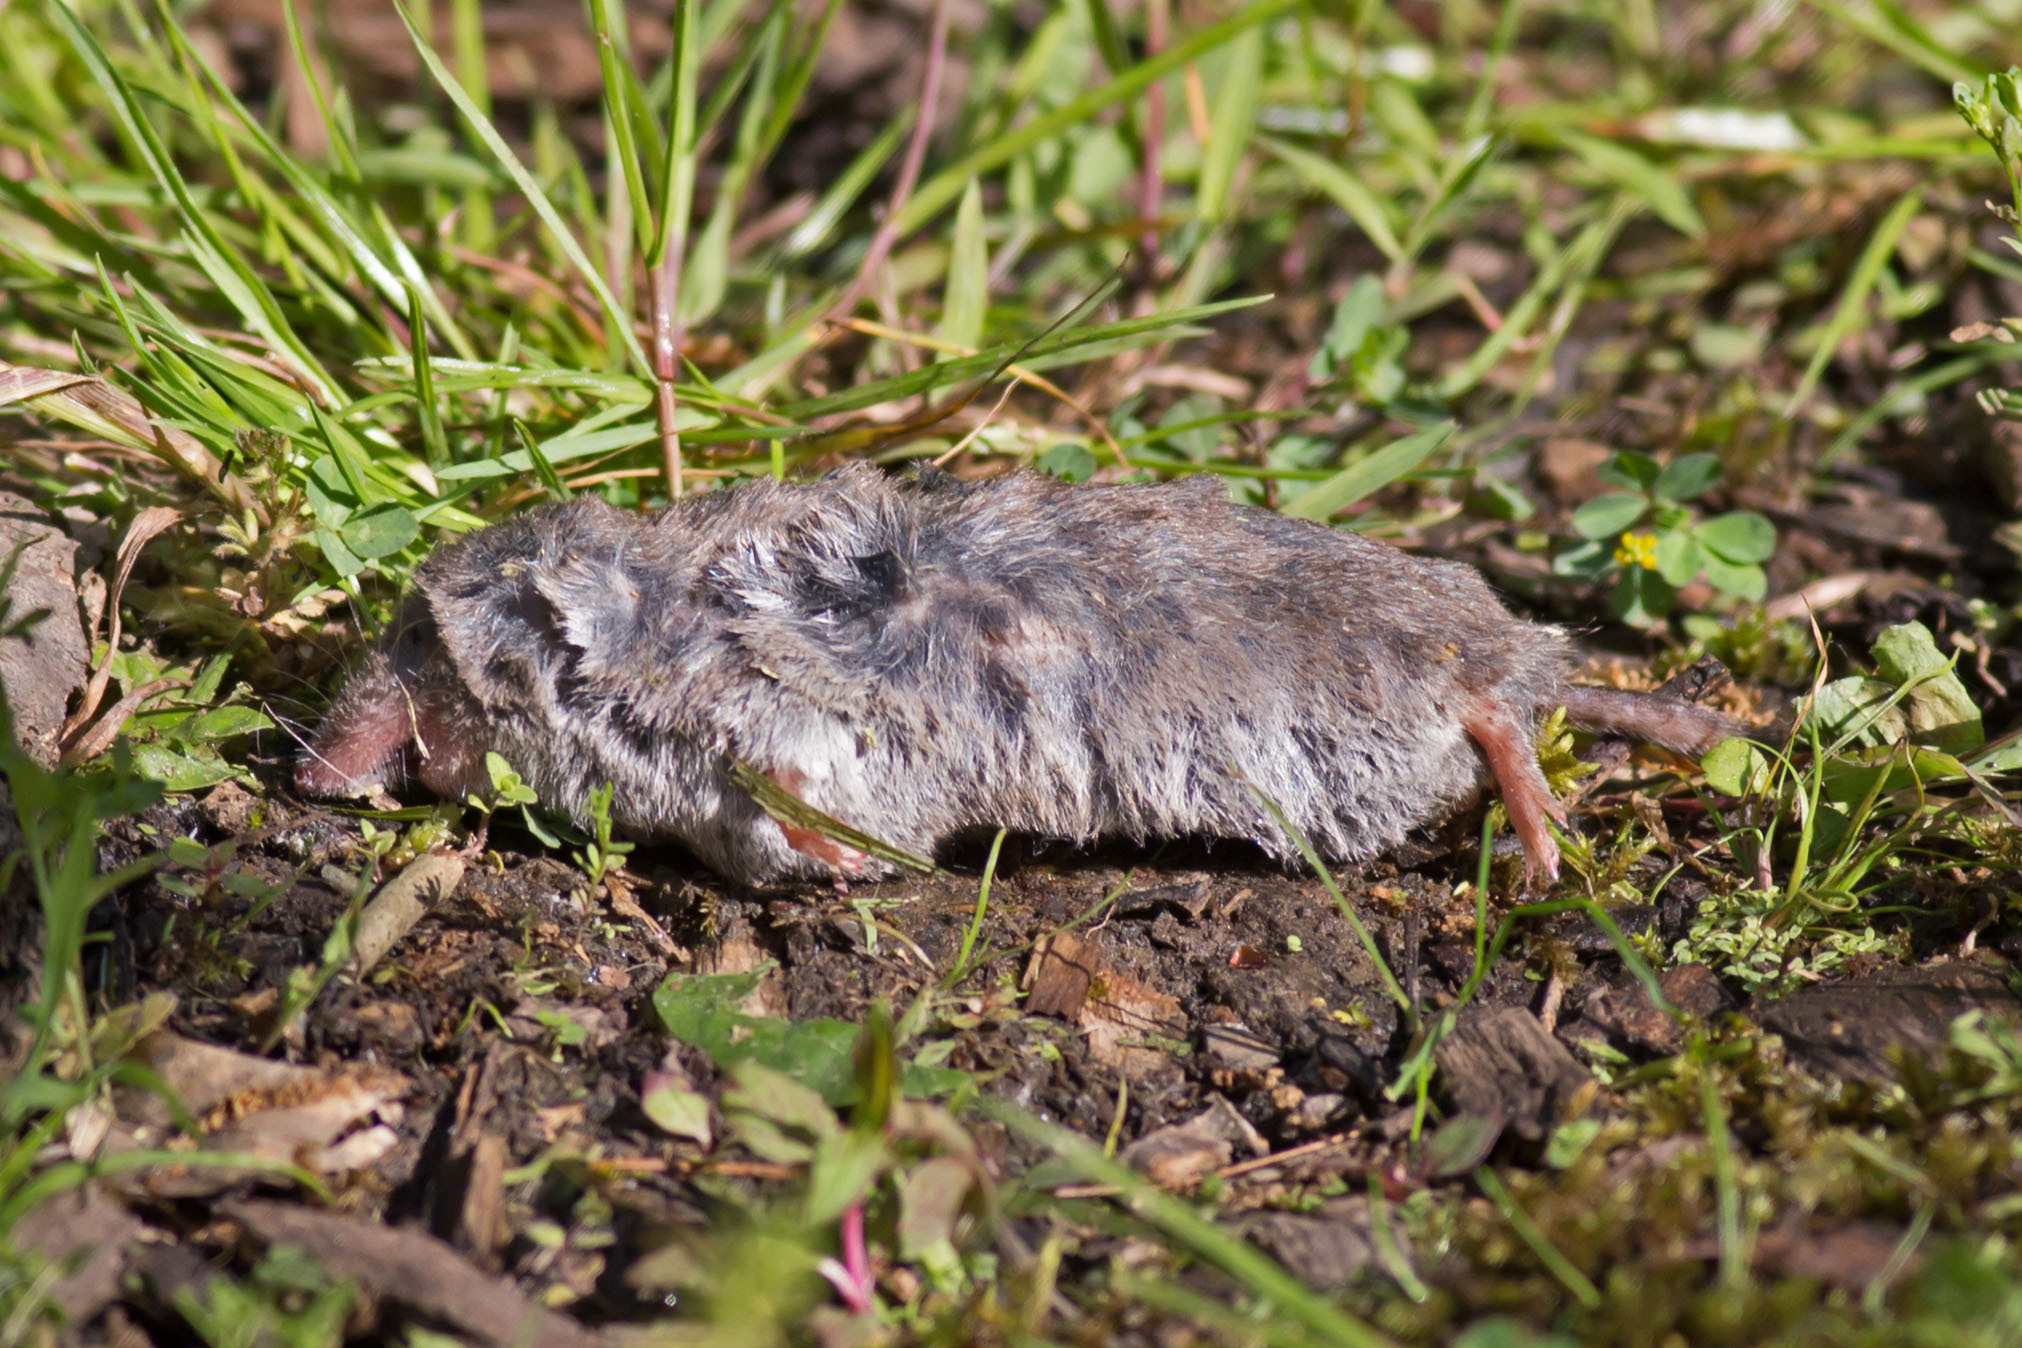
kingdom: Animalia
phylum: Chordata
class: Mammalia
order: Soricomorpha
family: Soricidae
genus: Blarina
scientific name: Blarina brevicauda
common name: Northern short-tailed shrew
